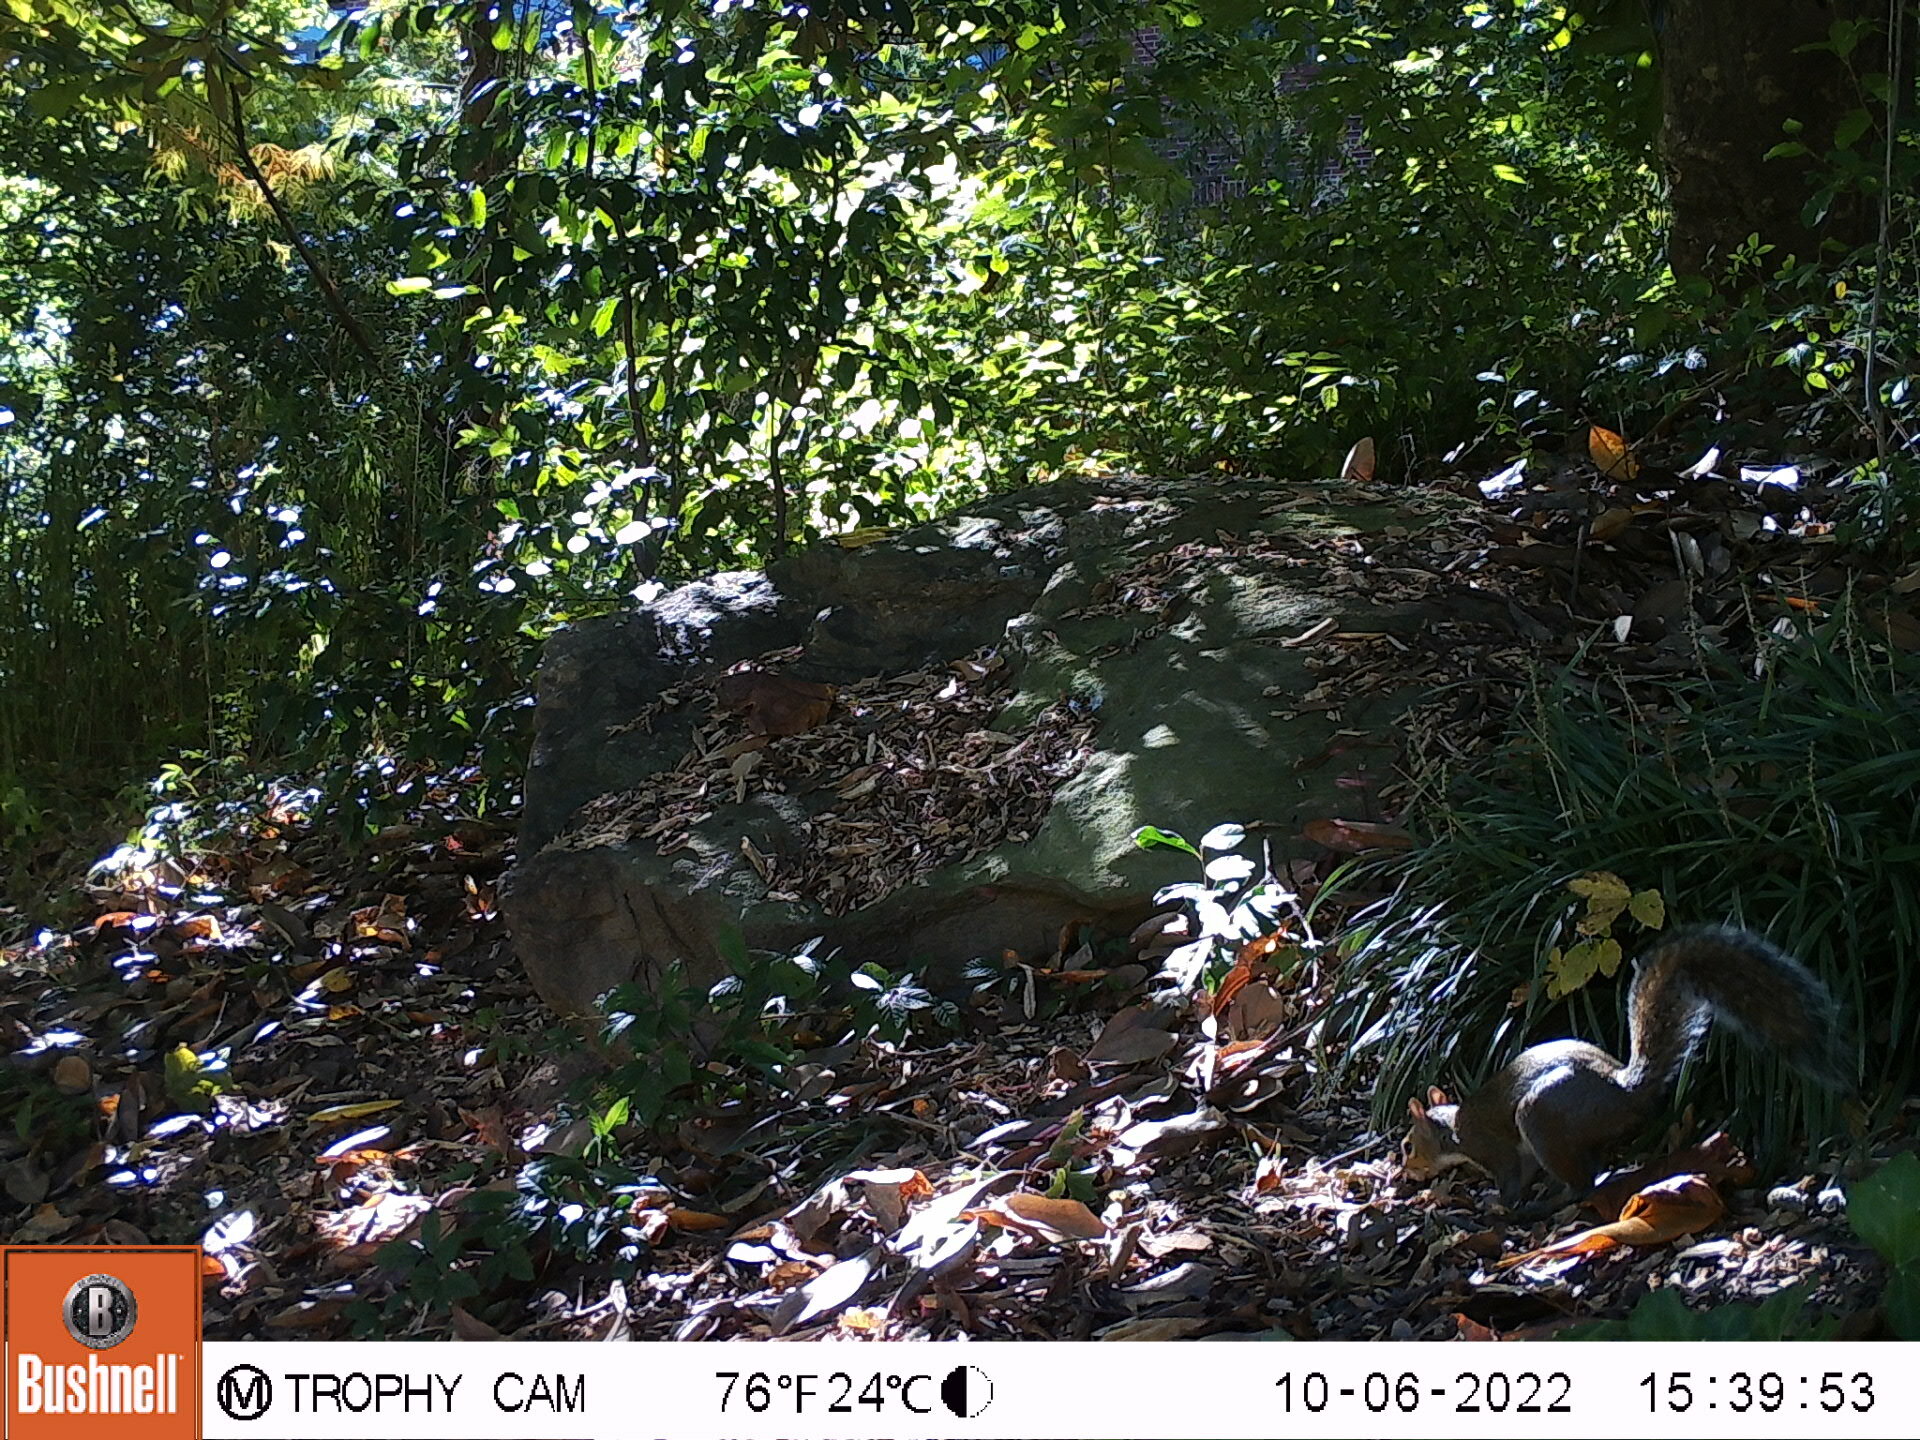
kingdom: Animalia
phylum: Chordata
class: Mammalia
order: Rodentia
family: Sciuridae
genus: Sciurus
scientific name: Sciurus carolinensis
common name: Eastern gray squirrel
